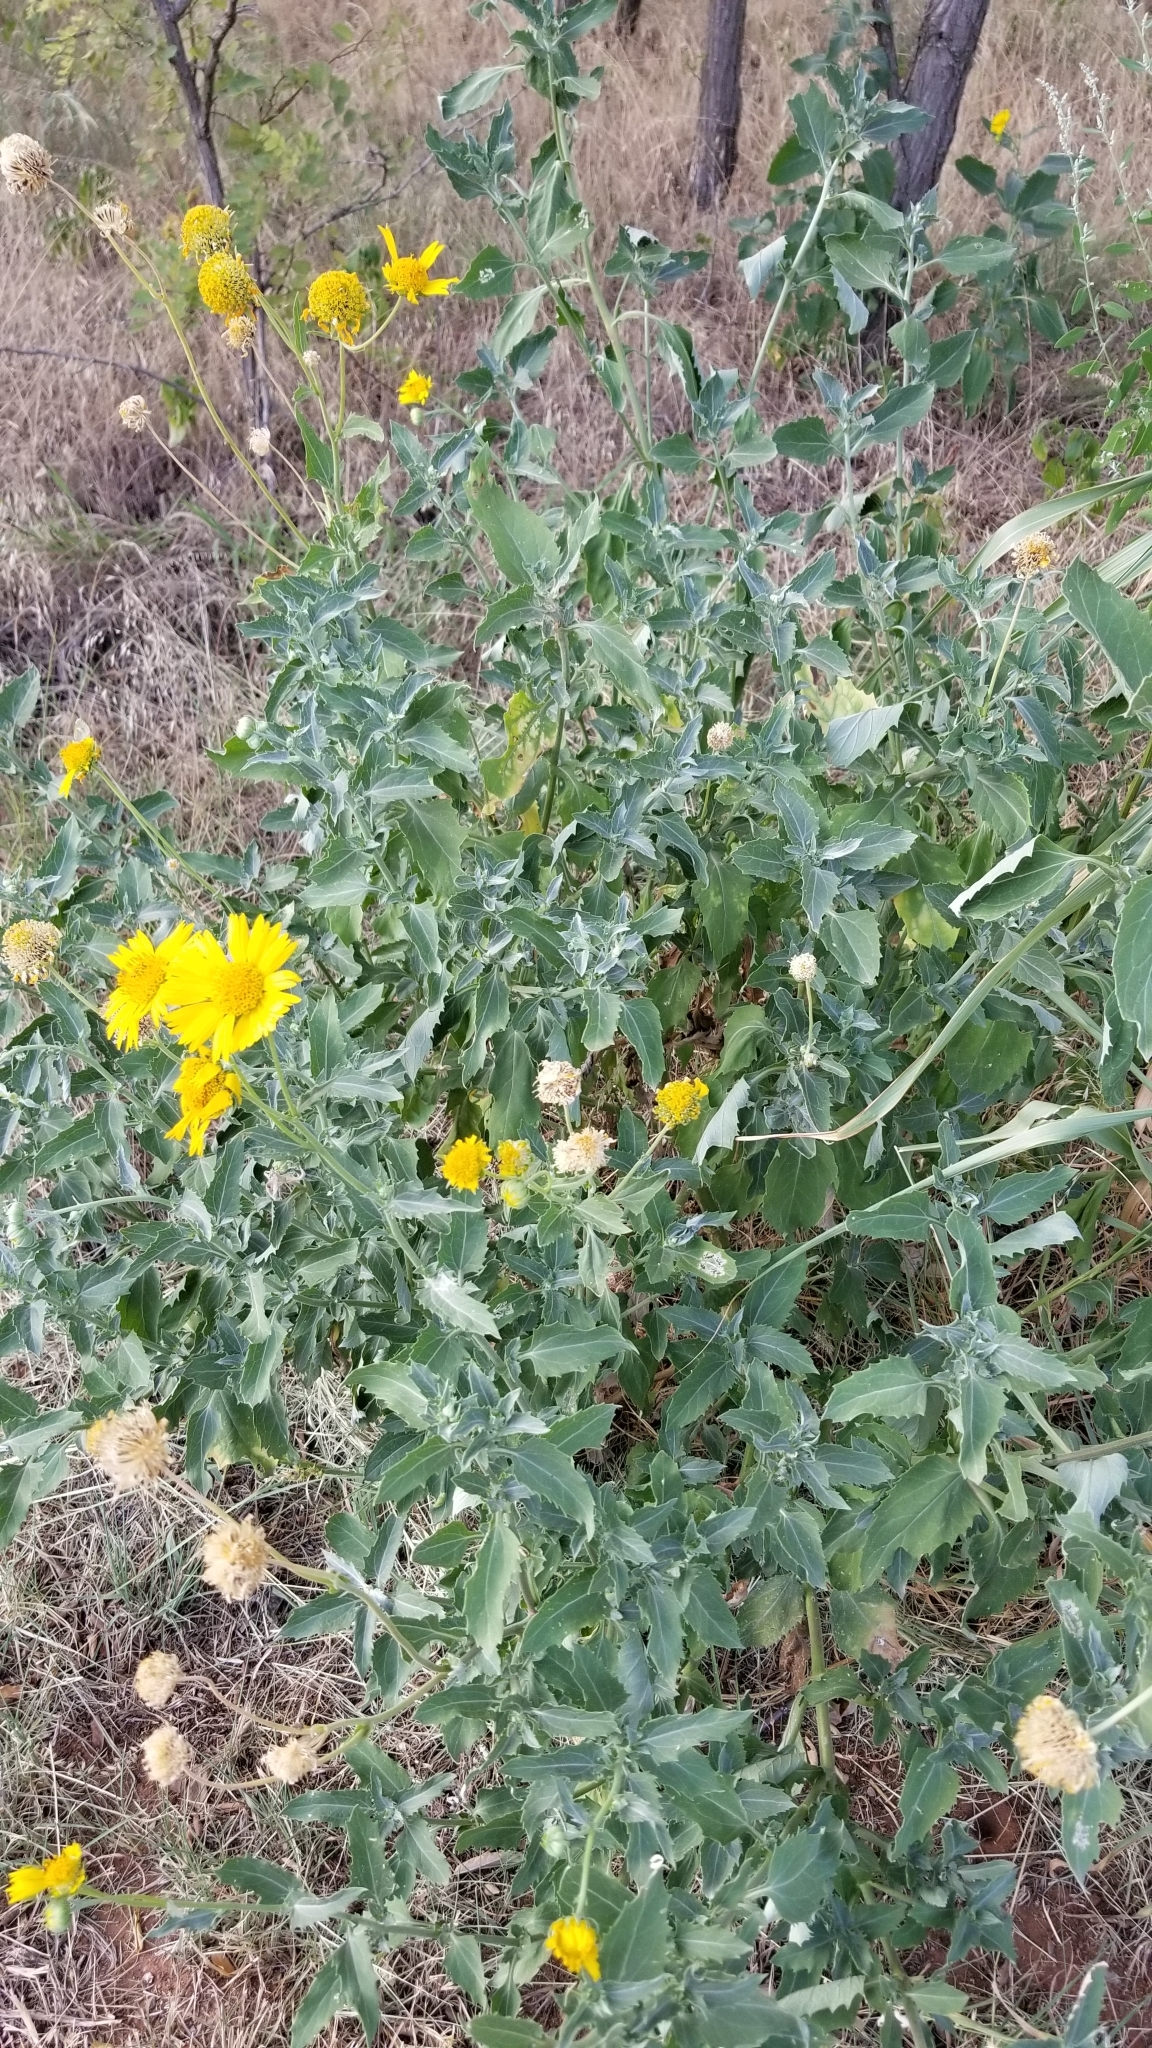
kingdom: Plantae
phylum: Tracheophyta
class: Magnoliopsida
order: Asterales
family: Asteraceae
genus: Verbesina
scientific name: Verbesina encelioides
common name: Golden crownbeard
